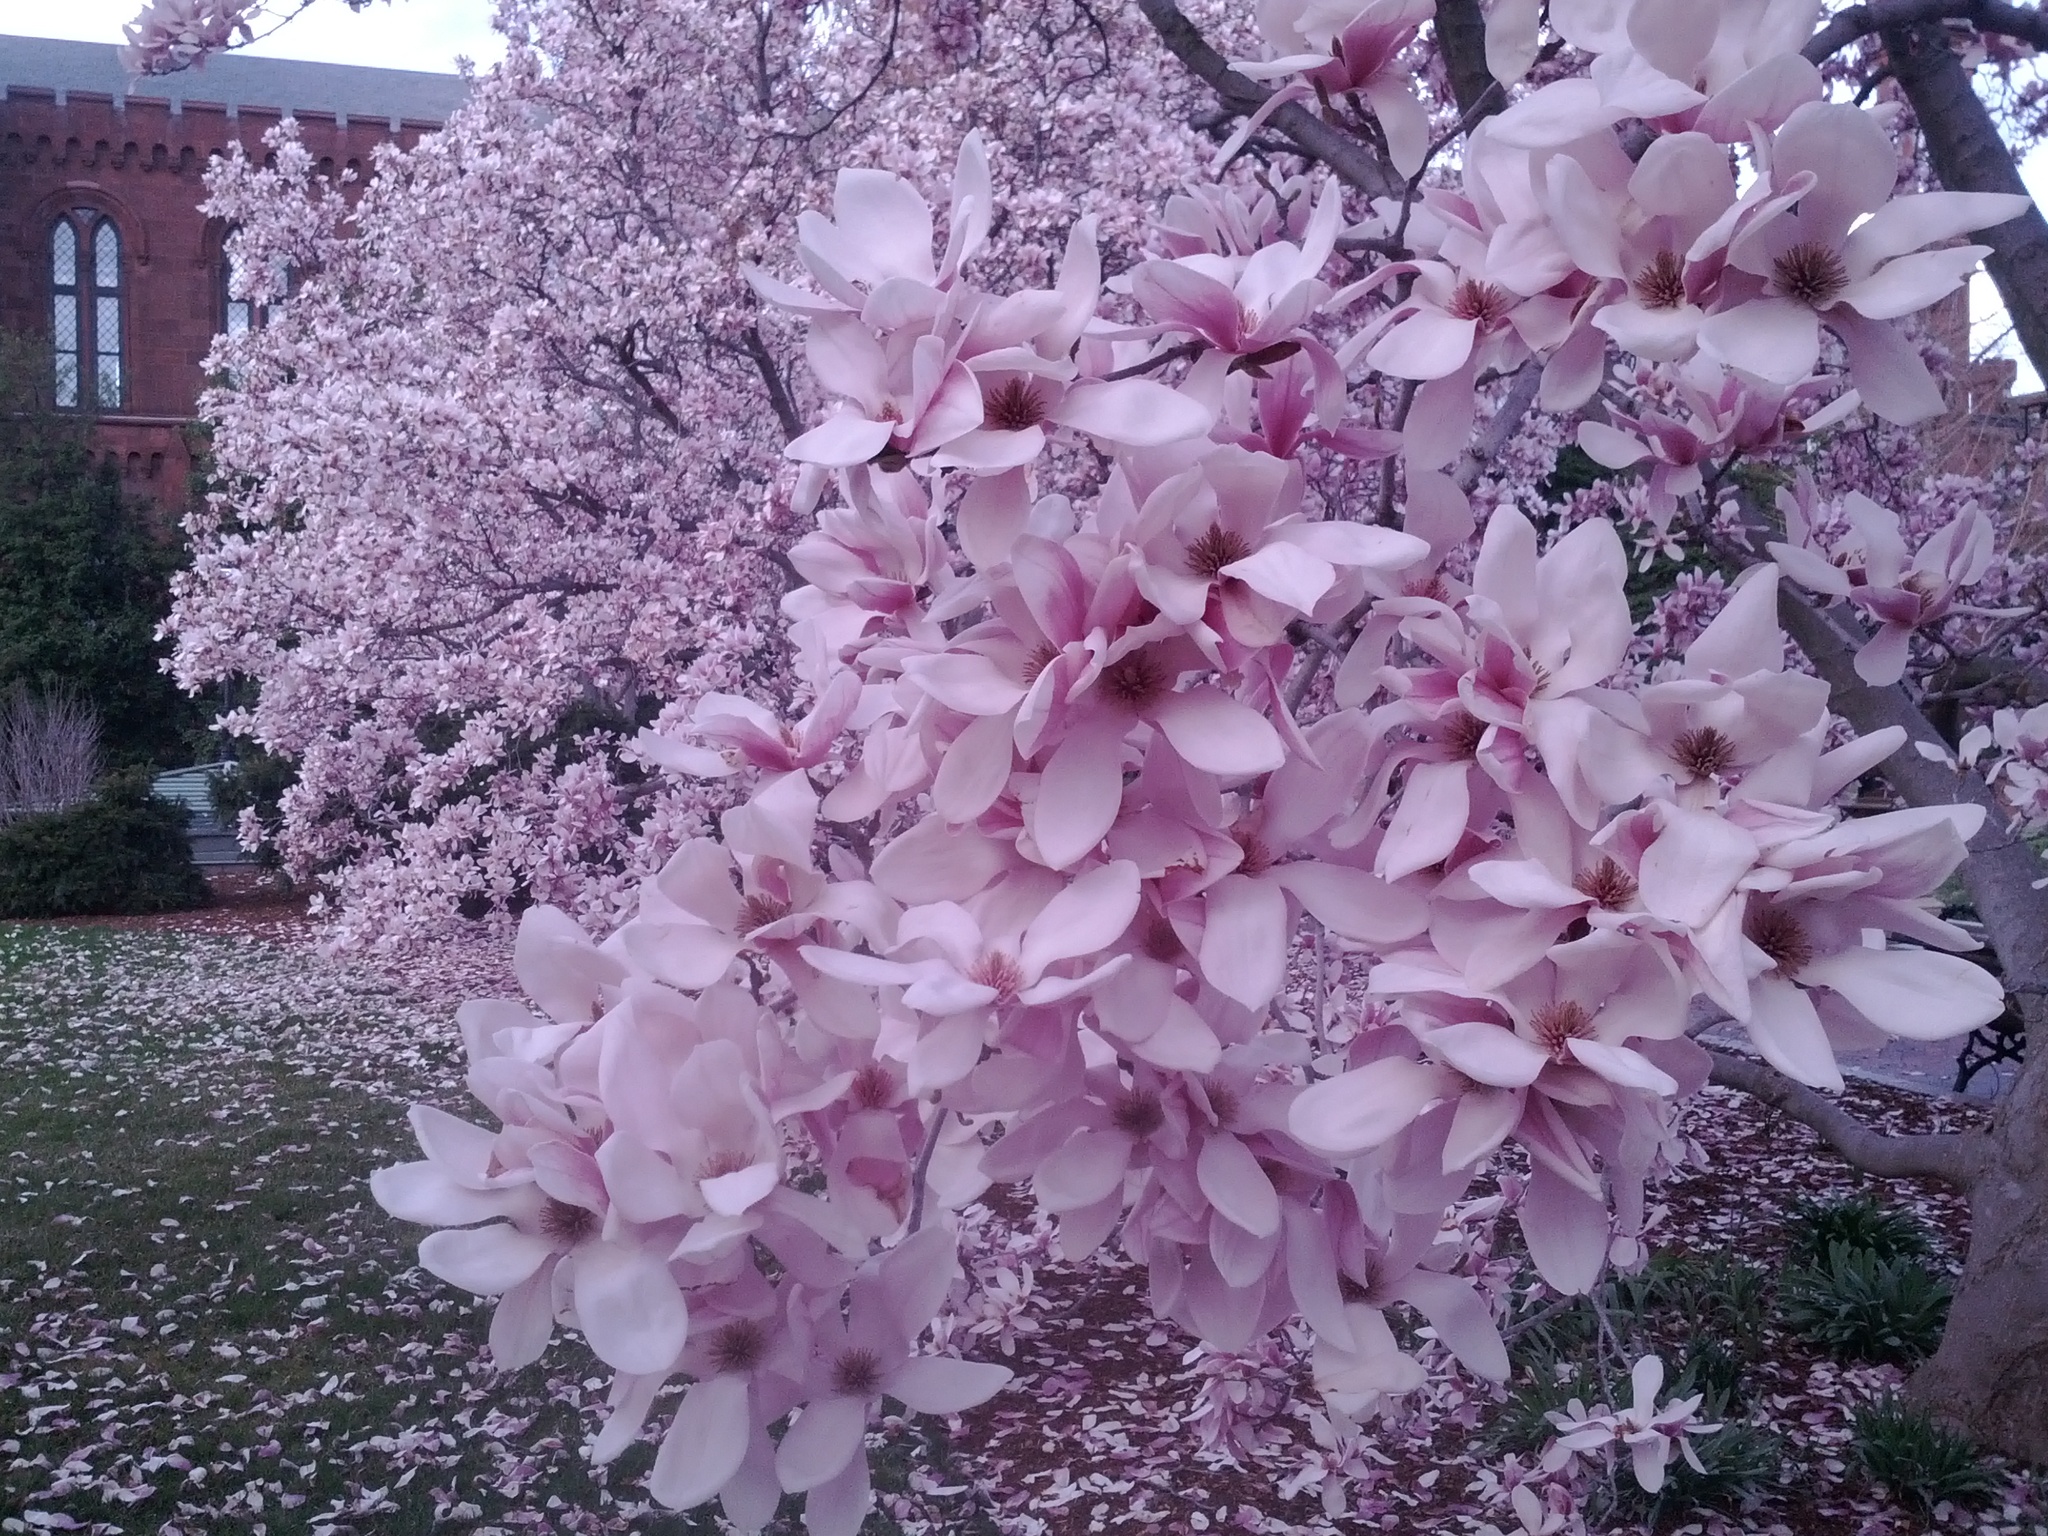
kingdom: Animalia
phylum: Chordata
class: Aves
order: Passeriformes
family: Icteridae
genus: Quiscalus
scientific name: Quiscalus quiscula
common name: Common grackle
